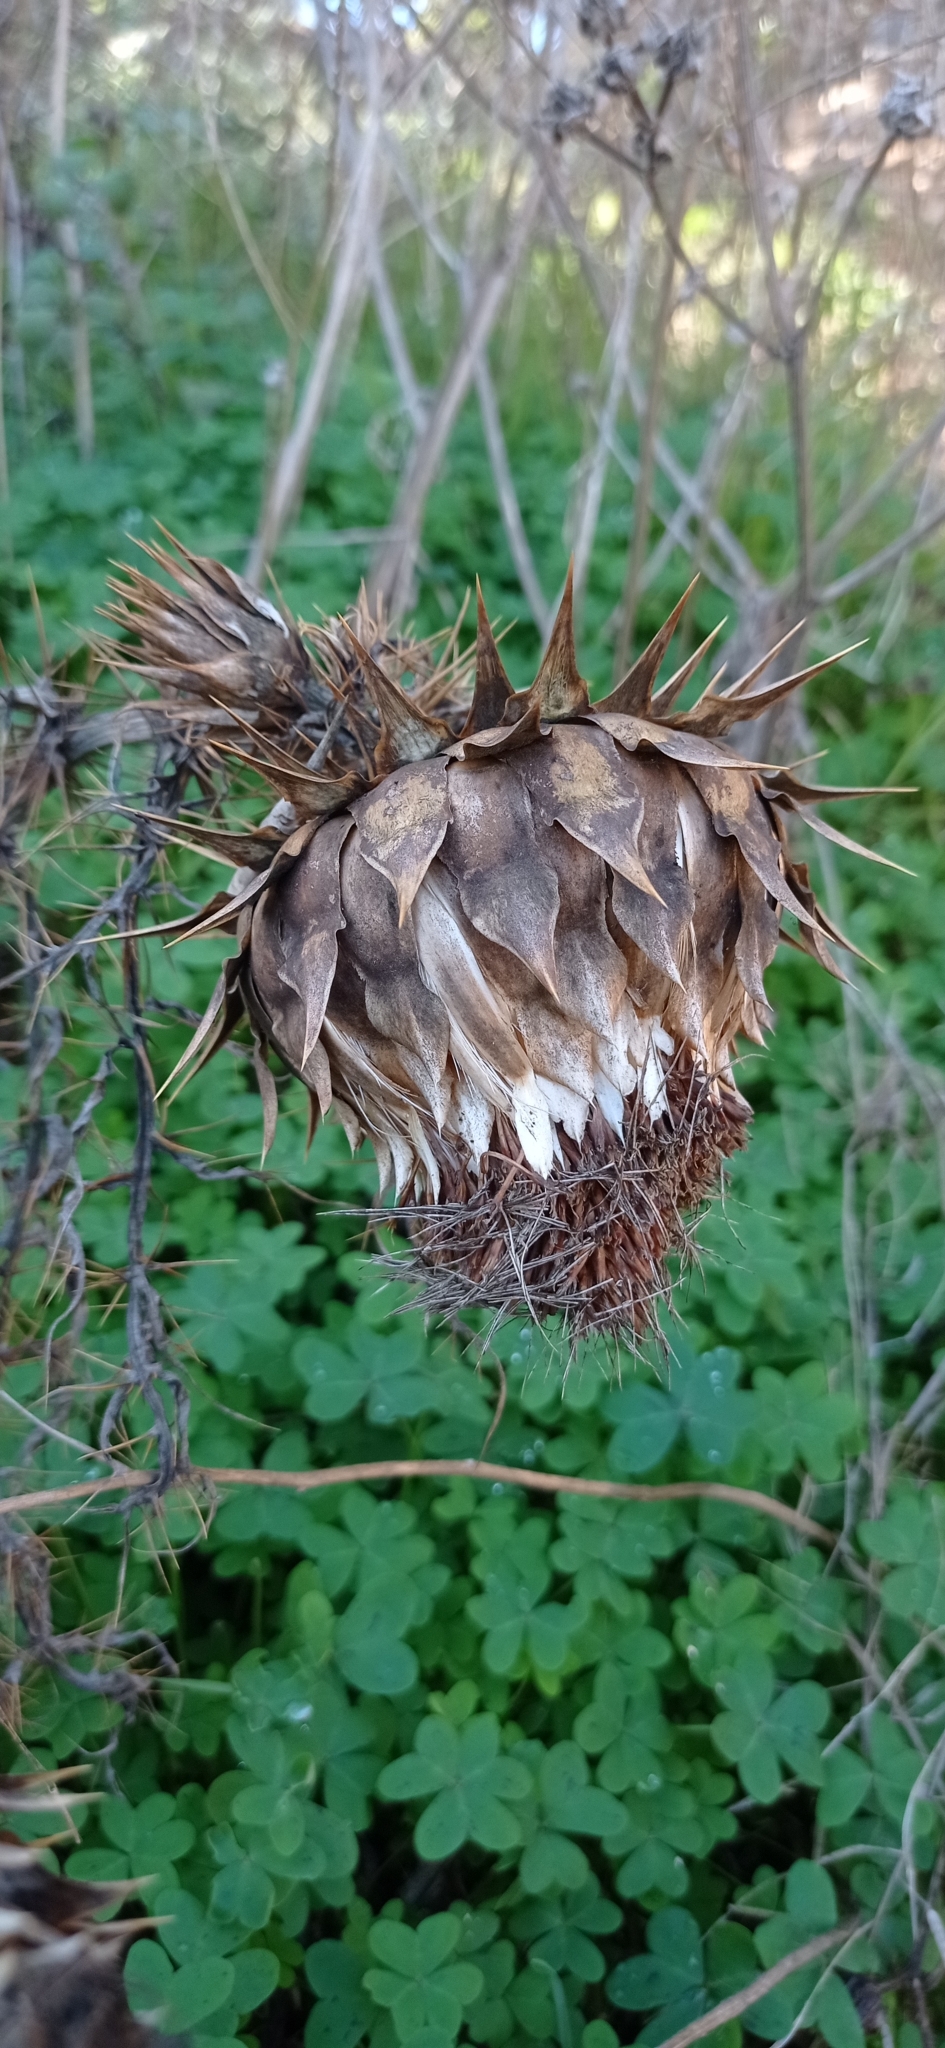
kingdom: Plantae
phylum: Tracheophyta
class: Magnoliopsida
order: Asterales
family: Asteraceae
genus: Cynara
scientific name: Cynara cardunculus
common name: Globe artichoke
